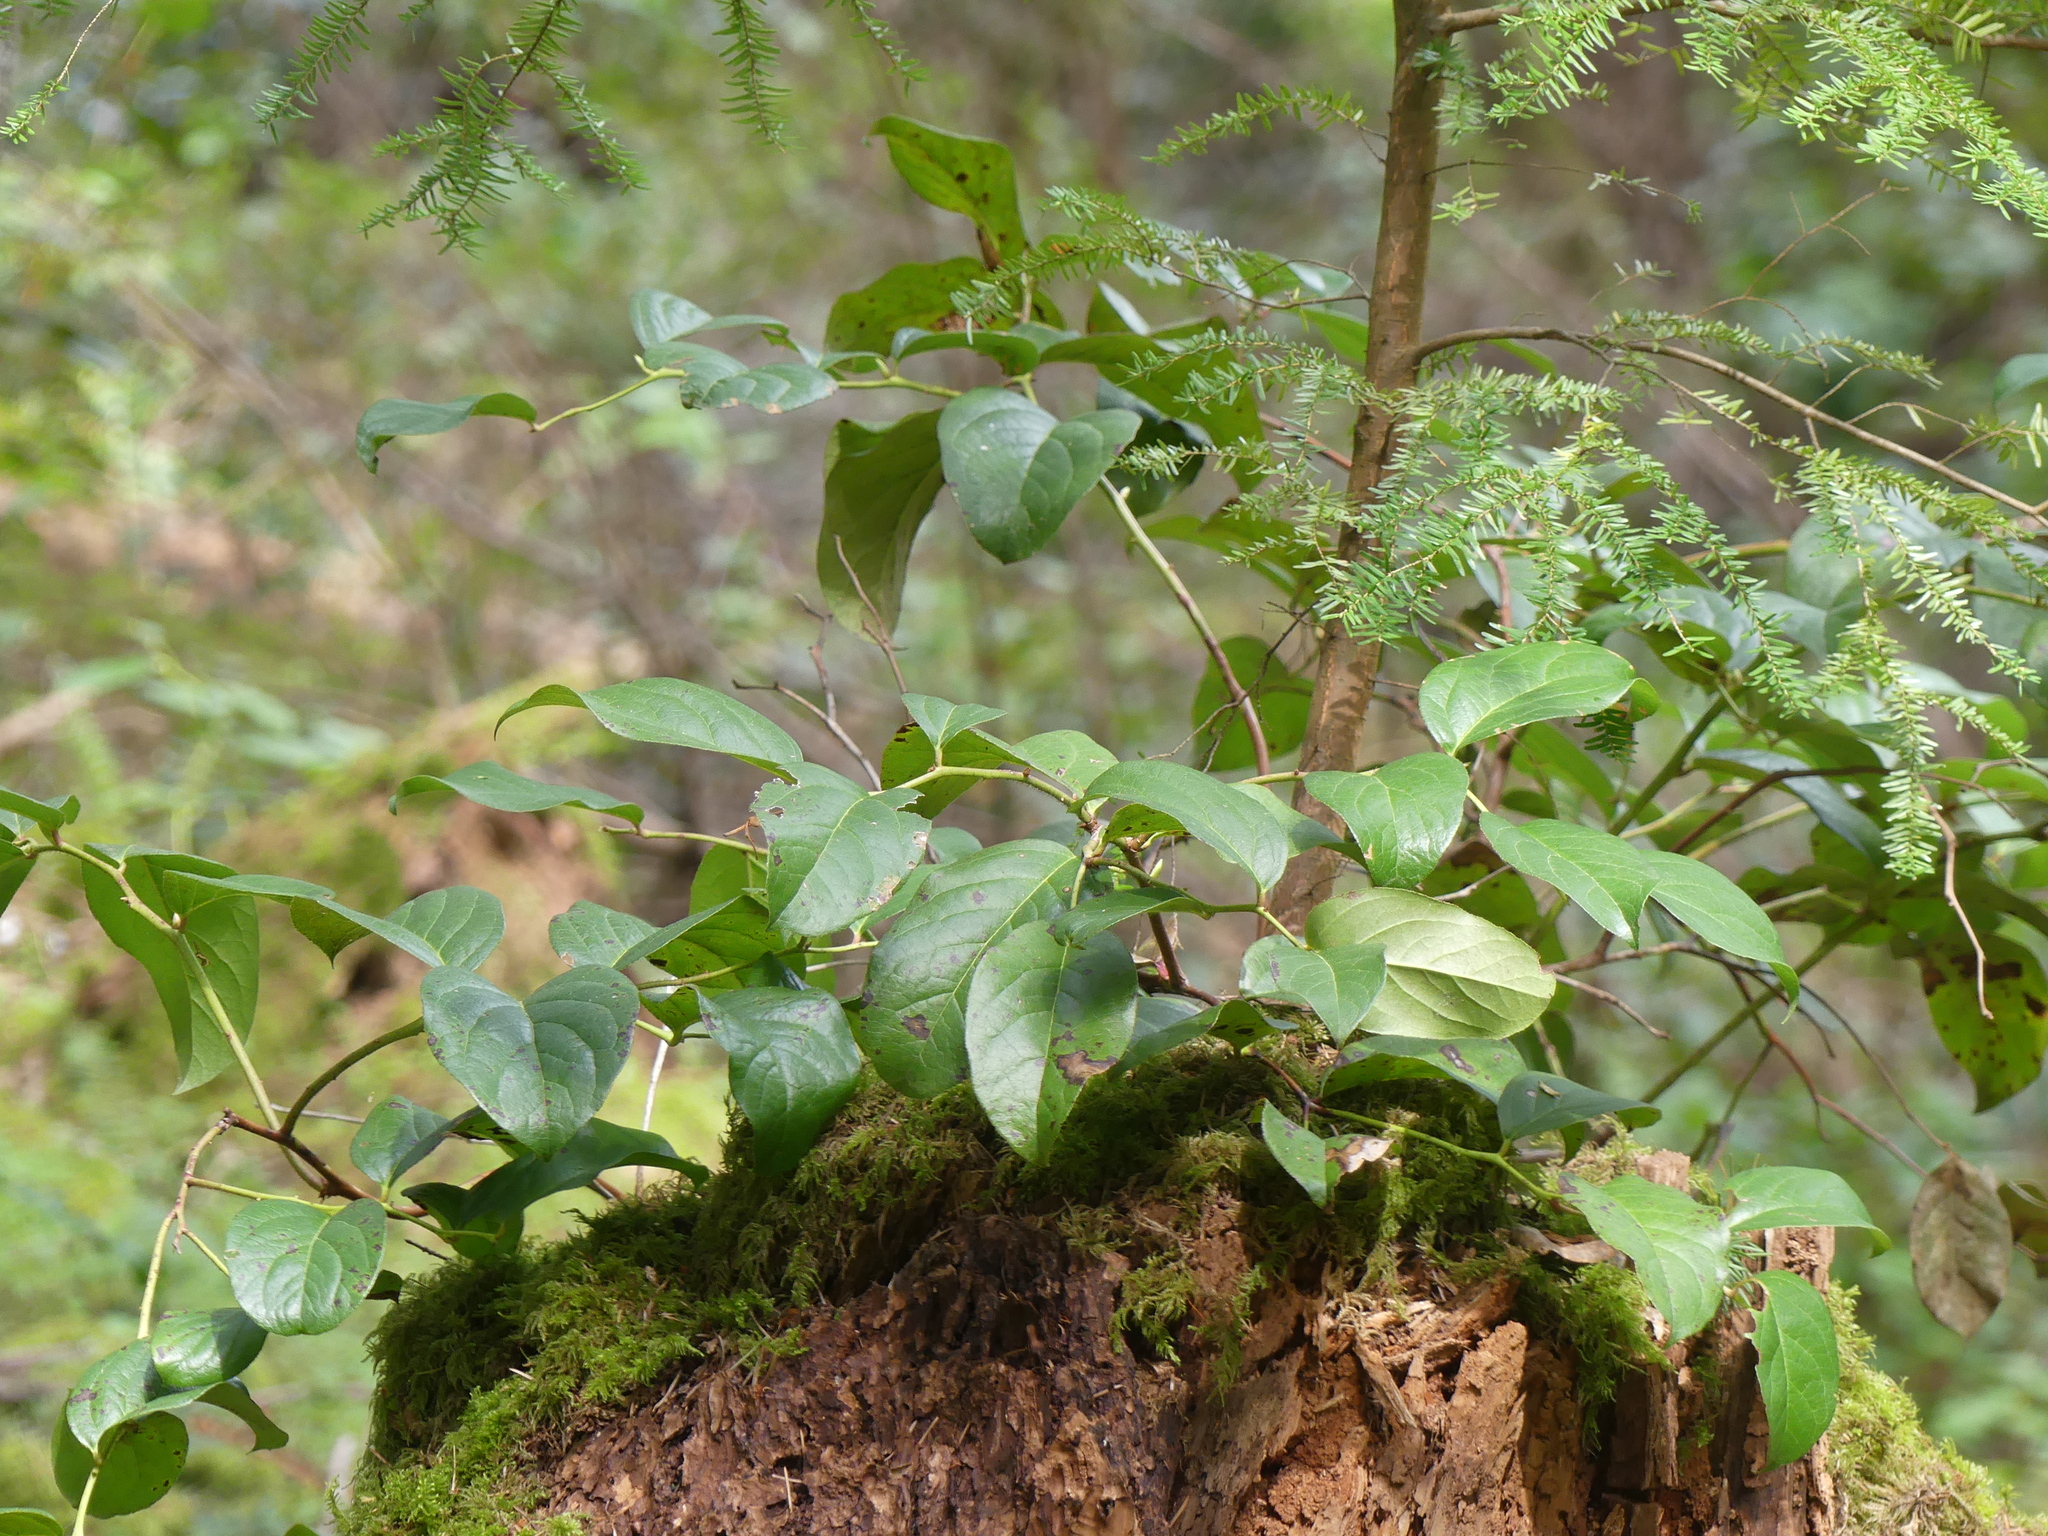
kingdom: Plantae
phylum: Tracheophyta
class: Magnoliopsida
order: Ericales
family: Ericaceae
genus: Gaultheria
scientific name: Gaultheria shallon
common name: Shallon
